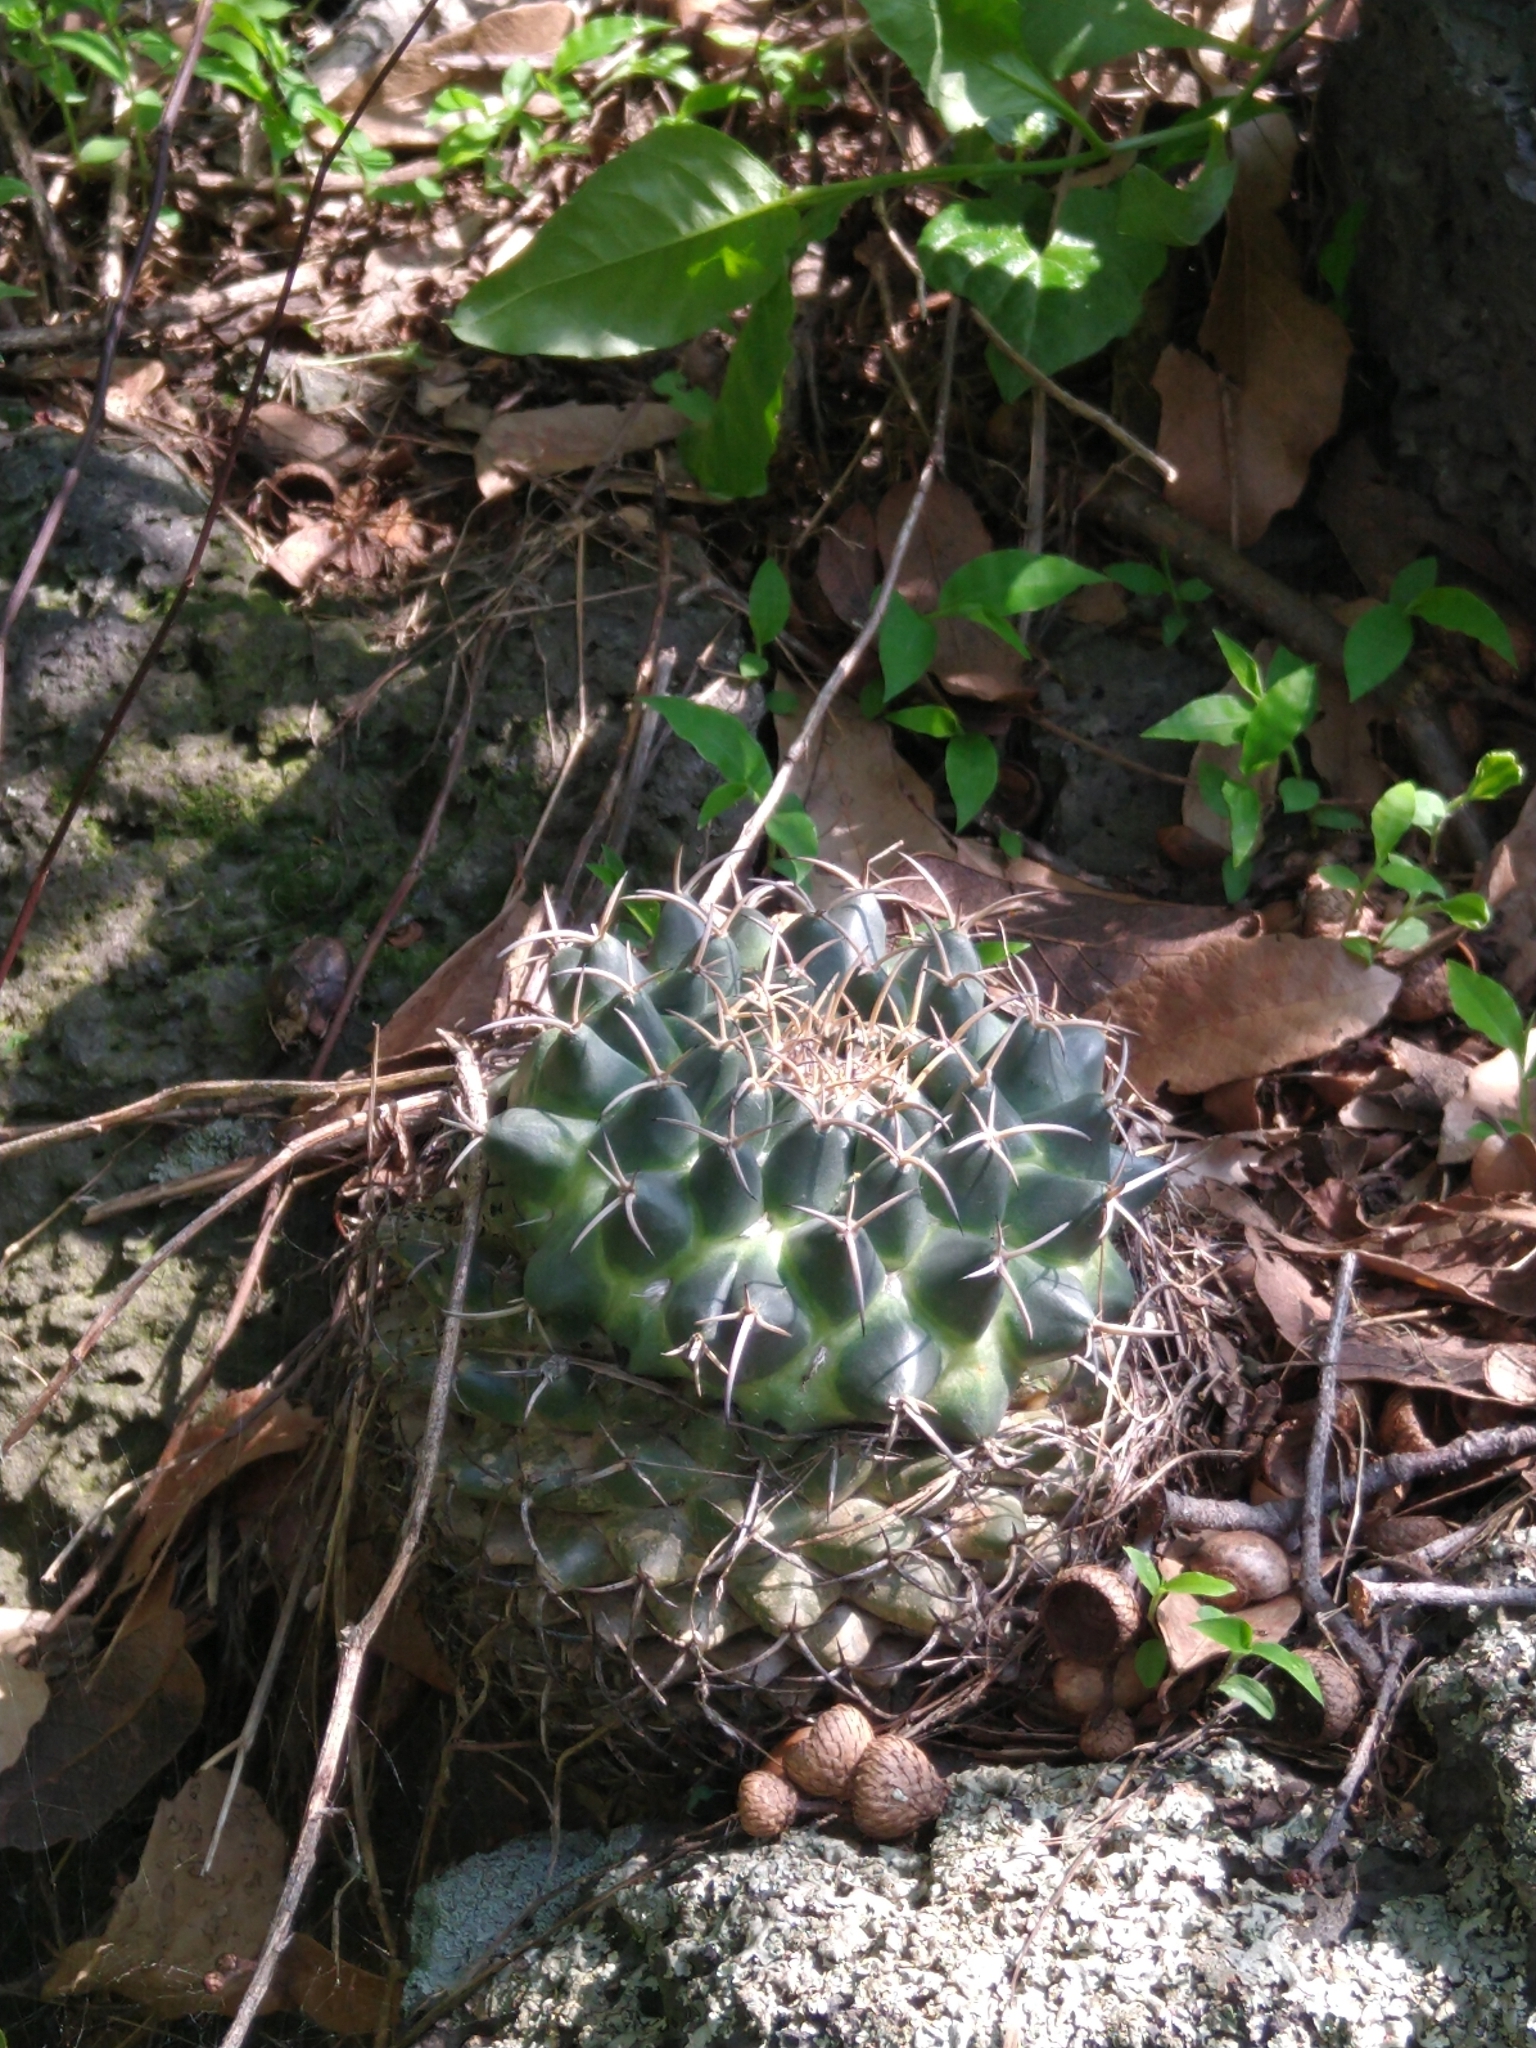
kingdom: Plantae
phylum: Tracheophyta
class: Magnoliopsida
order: Caryophyllales
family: Cactaceae
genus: Mammillaria
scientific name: Mammillaria magnimamma
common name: Mexican pincushion
